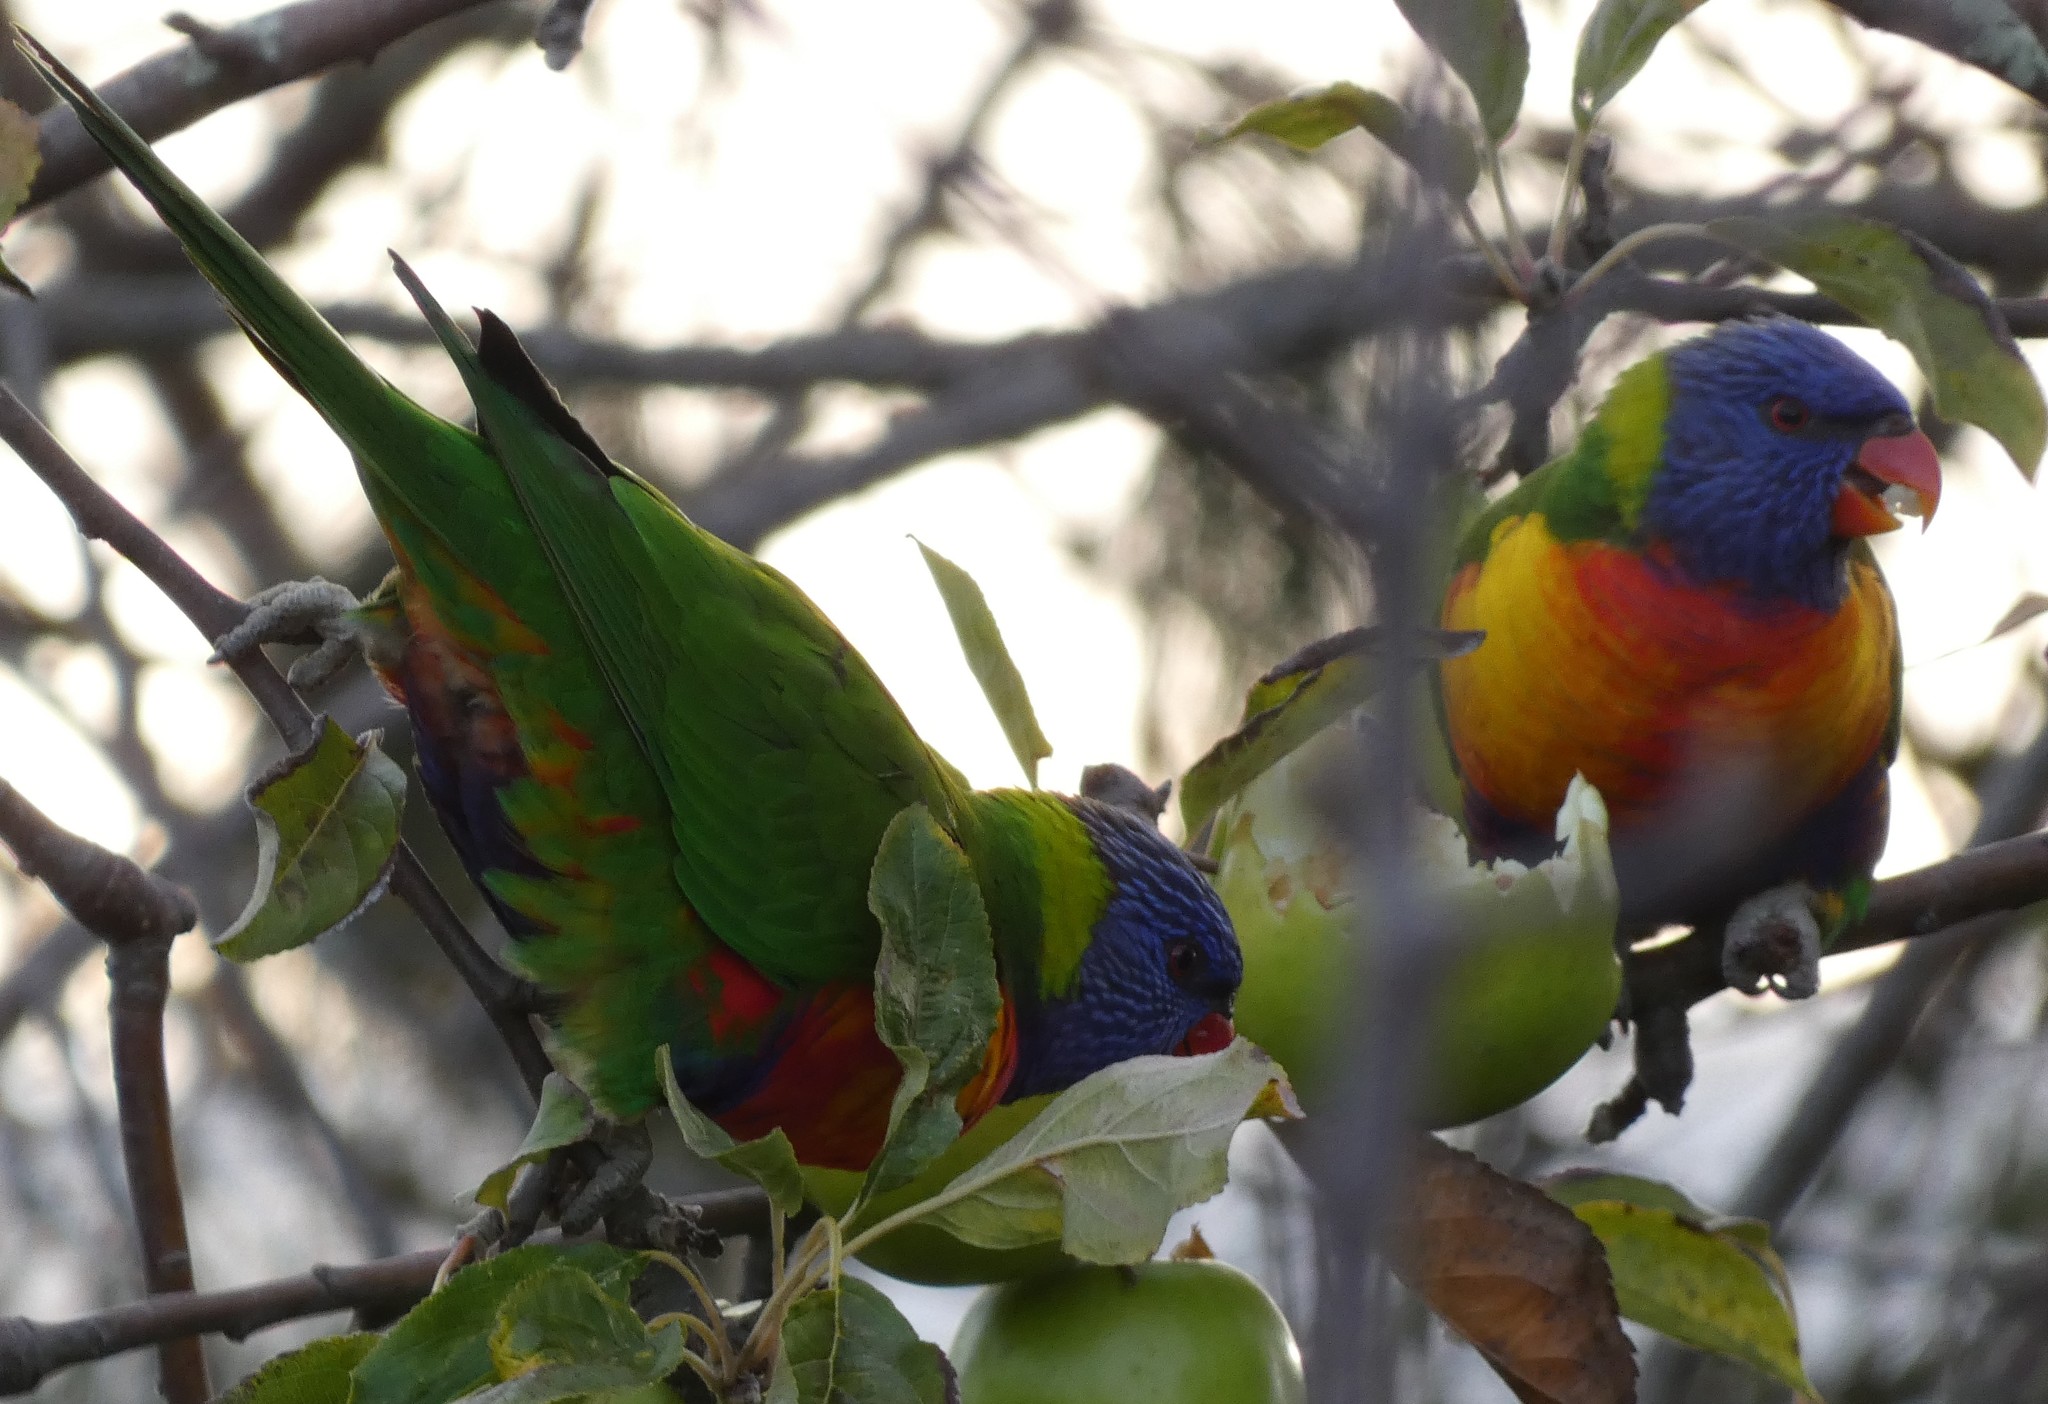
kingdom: Animalia
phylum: Chordata
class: Aves
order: Psittaciformes
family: Psittacidae
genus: Trichoglossus
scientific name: Trichoglossus haematodus
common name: Coconut lorikeet
